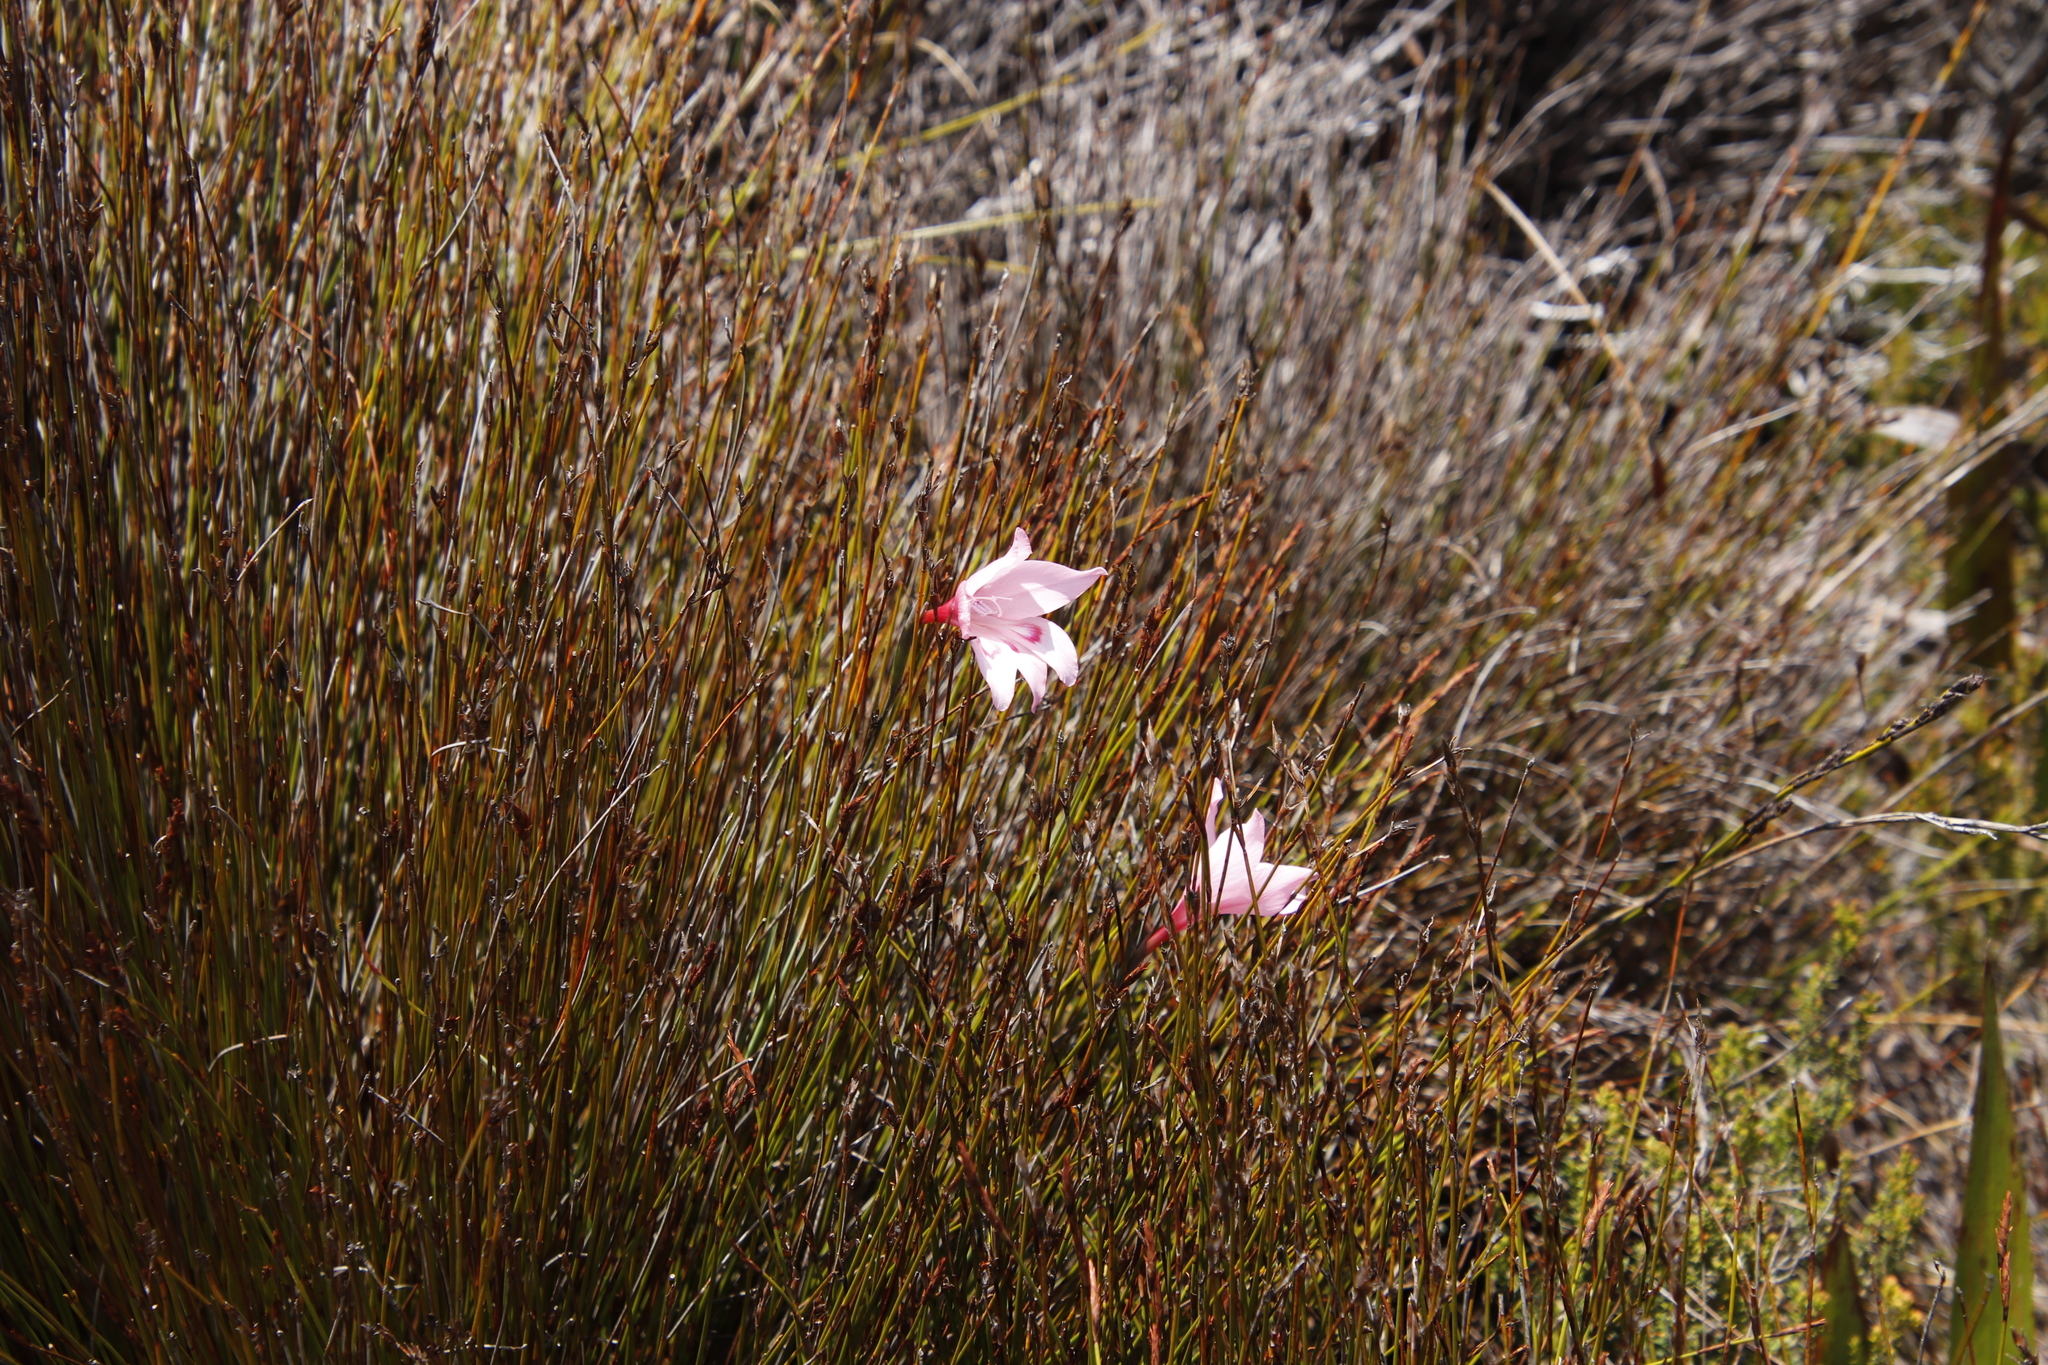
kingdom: Plantae
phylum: Tracheophyta
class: Liliopsida
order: Asparagales
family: Iridaceae
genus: Gladiolus
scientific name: Gladiolus pappei
